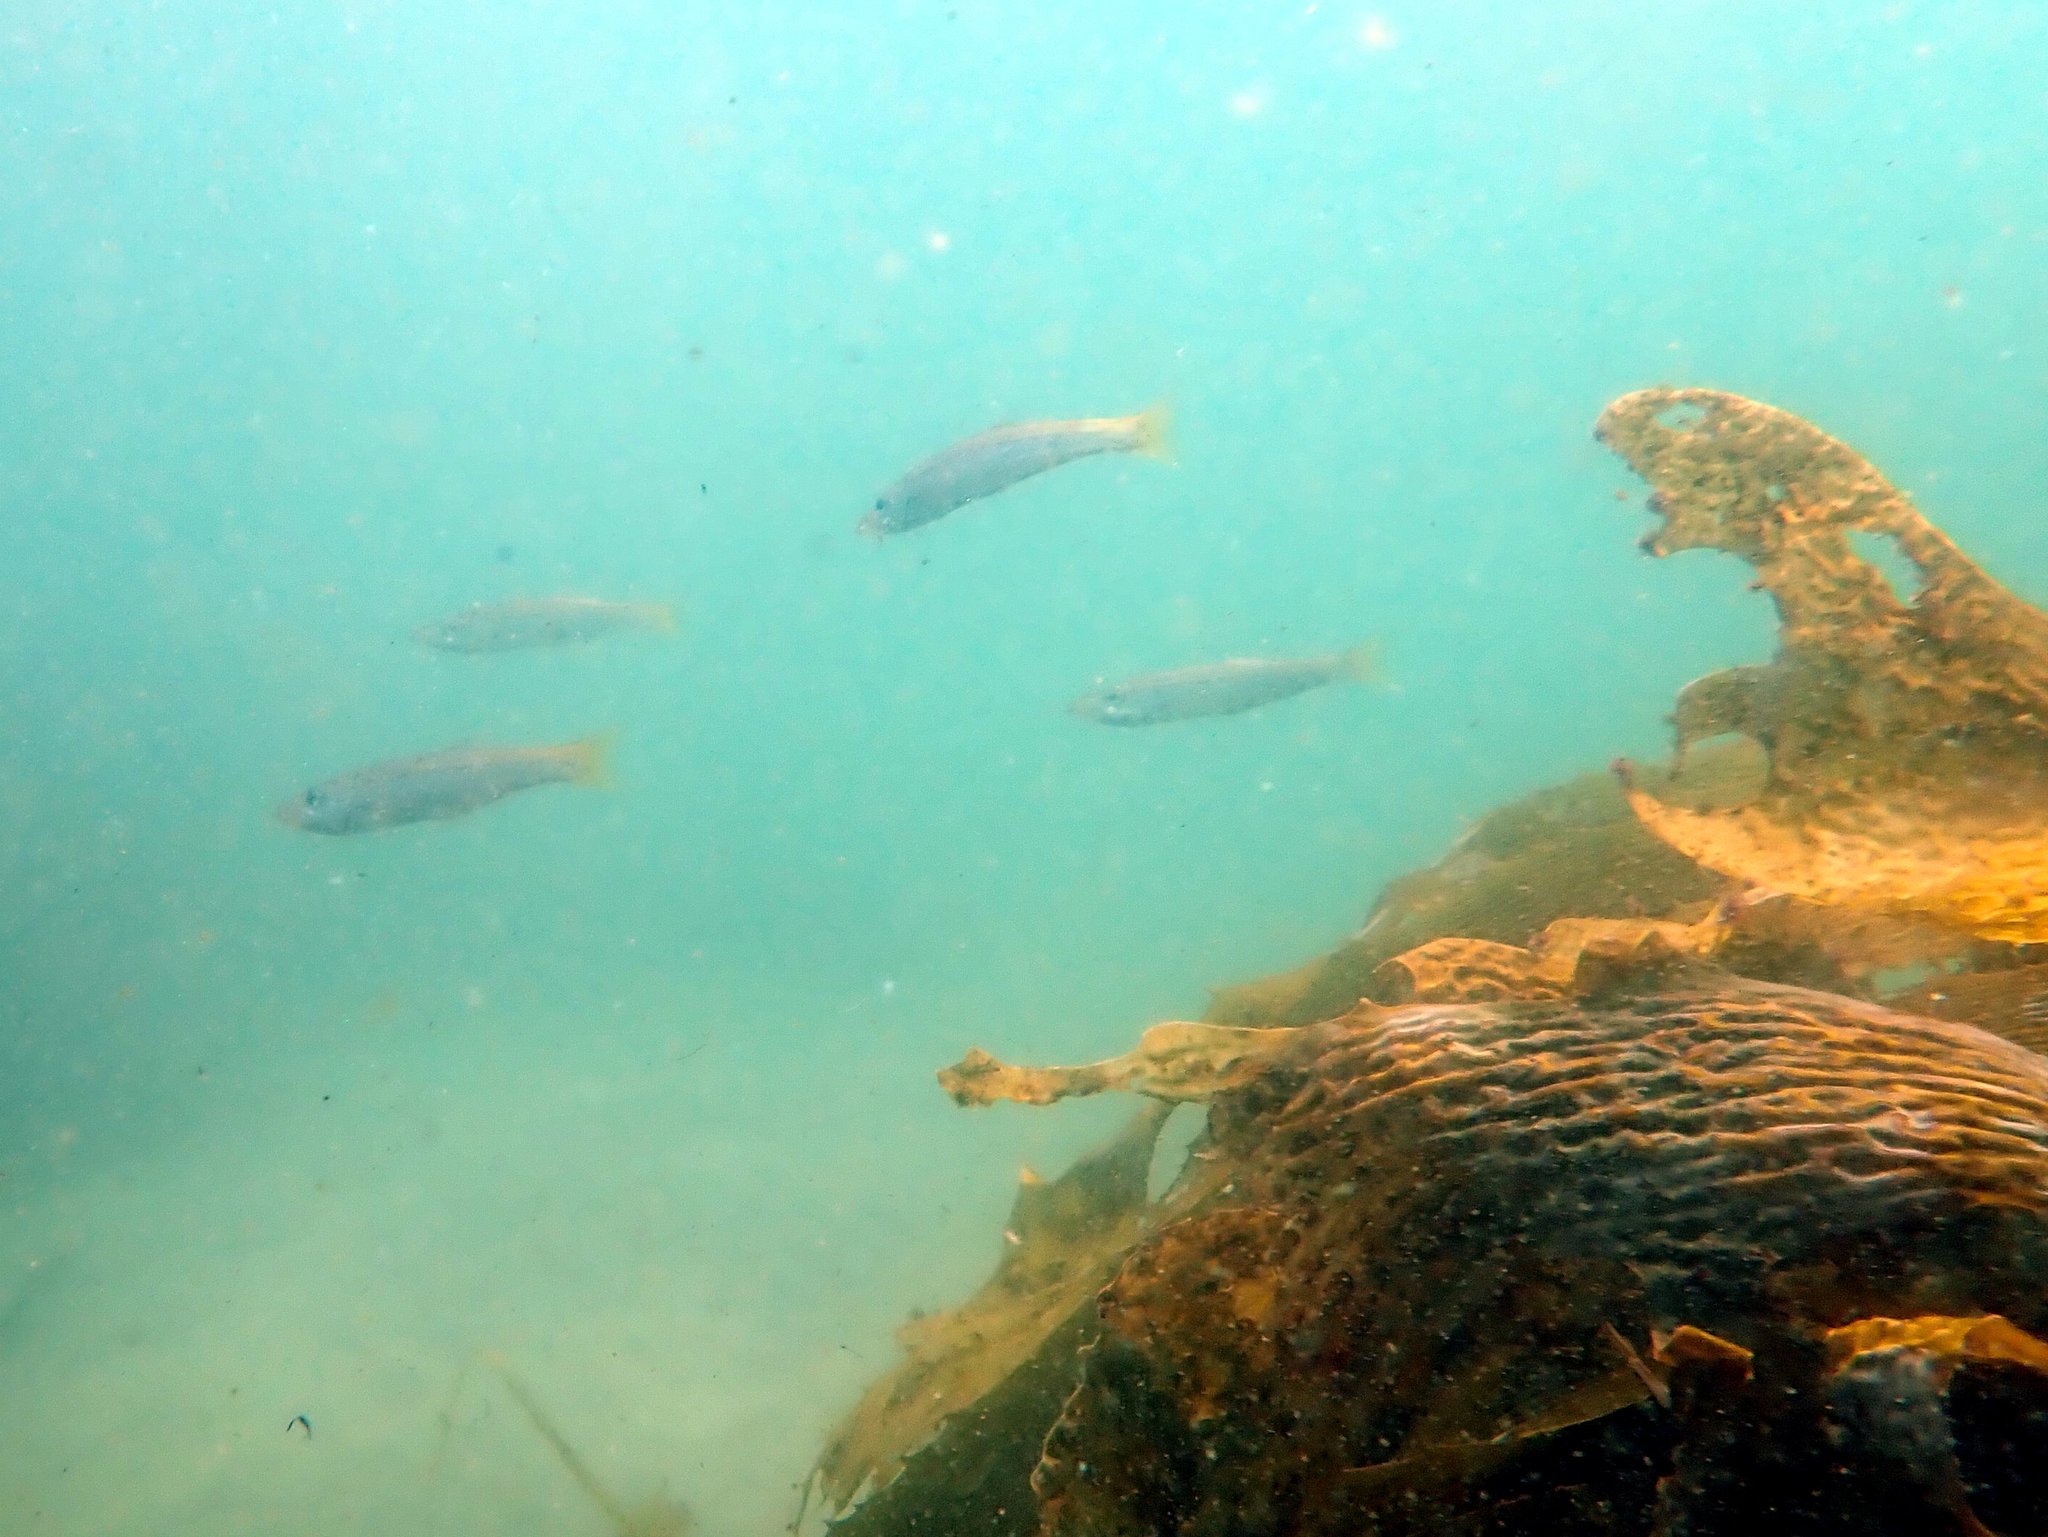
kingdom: Animalia
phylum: Chordata
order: Perciformes
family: Dinolestidae
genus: Dinolestes
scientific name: Dinolestes lewini
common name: Jack pike
